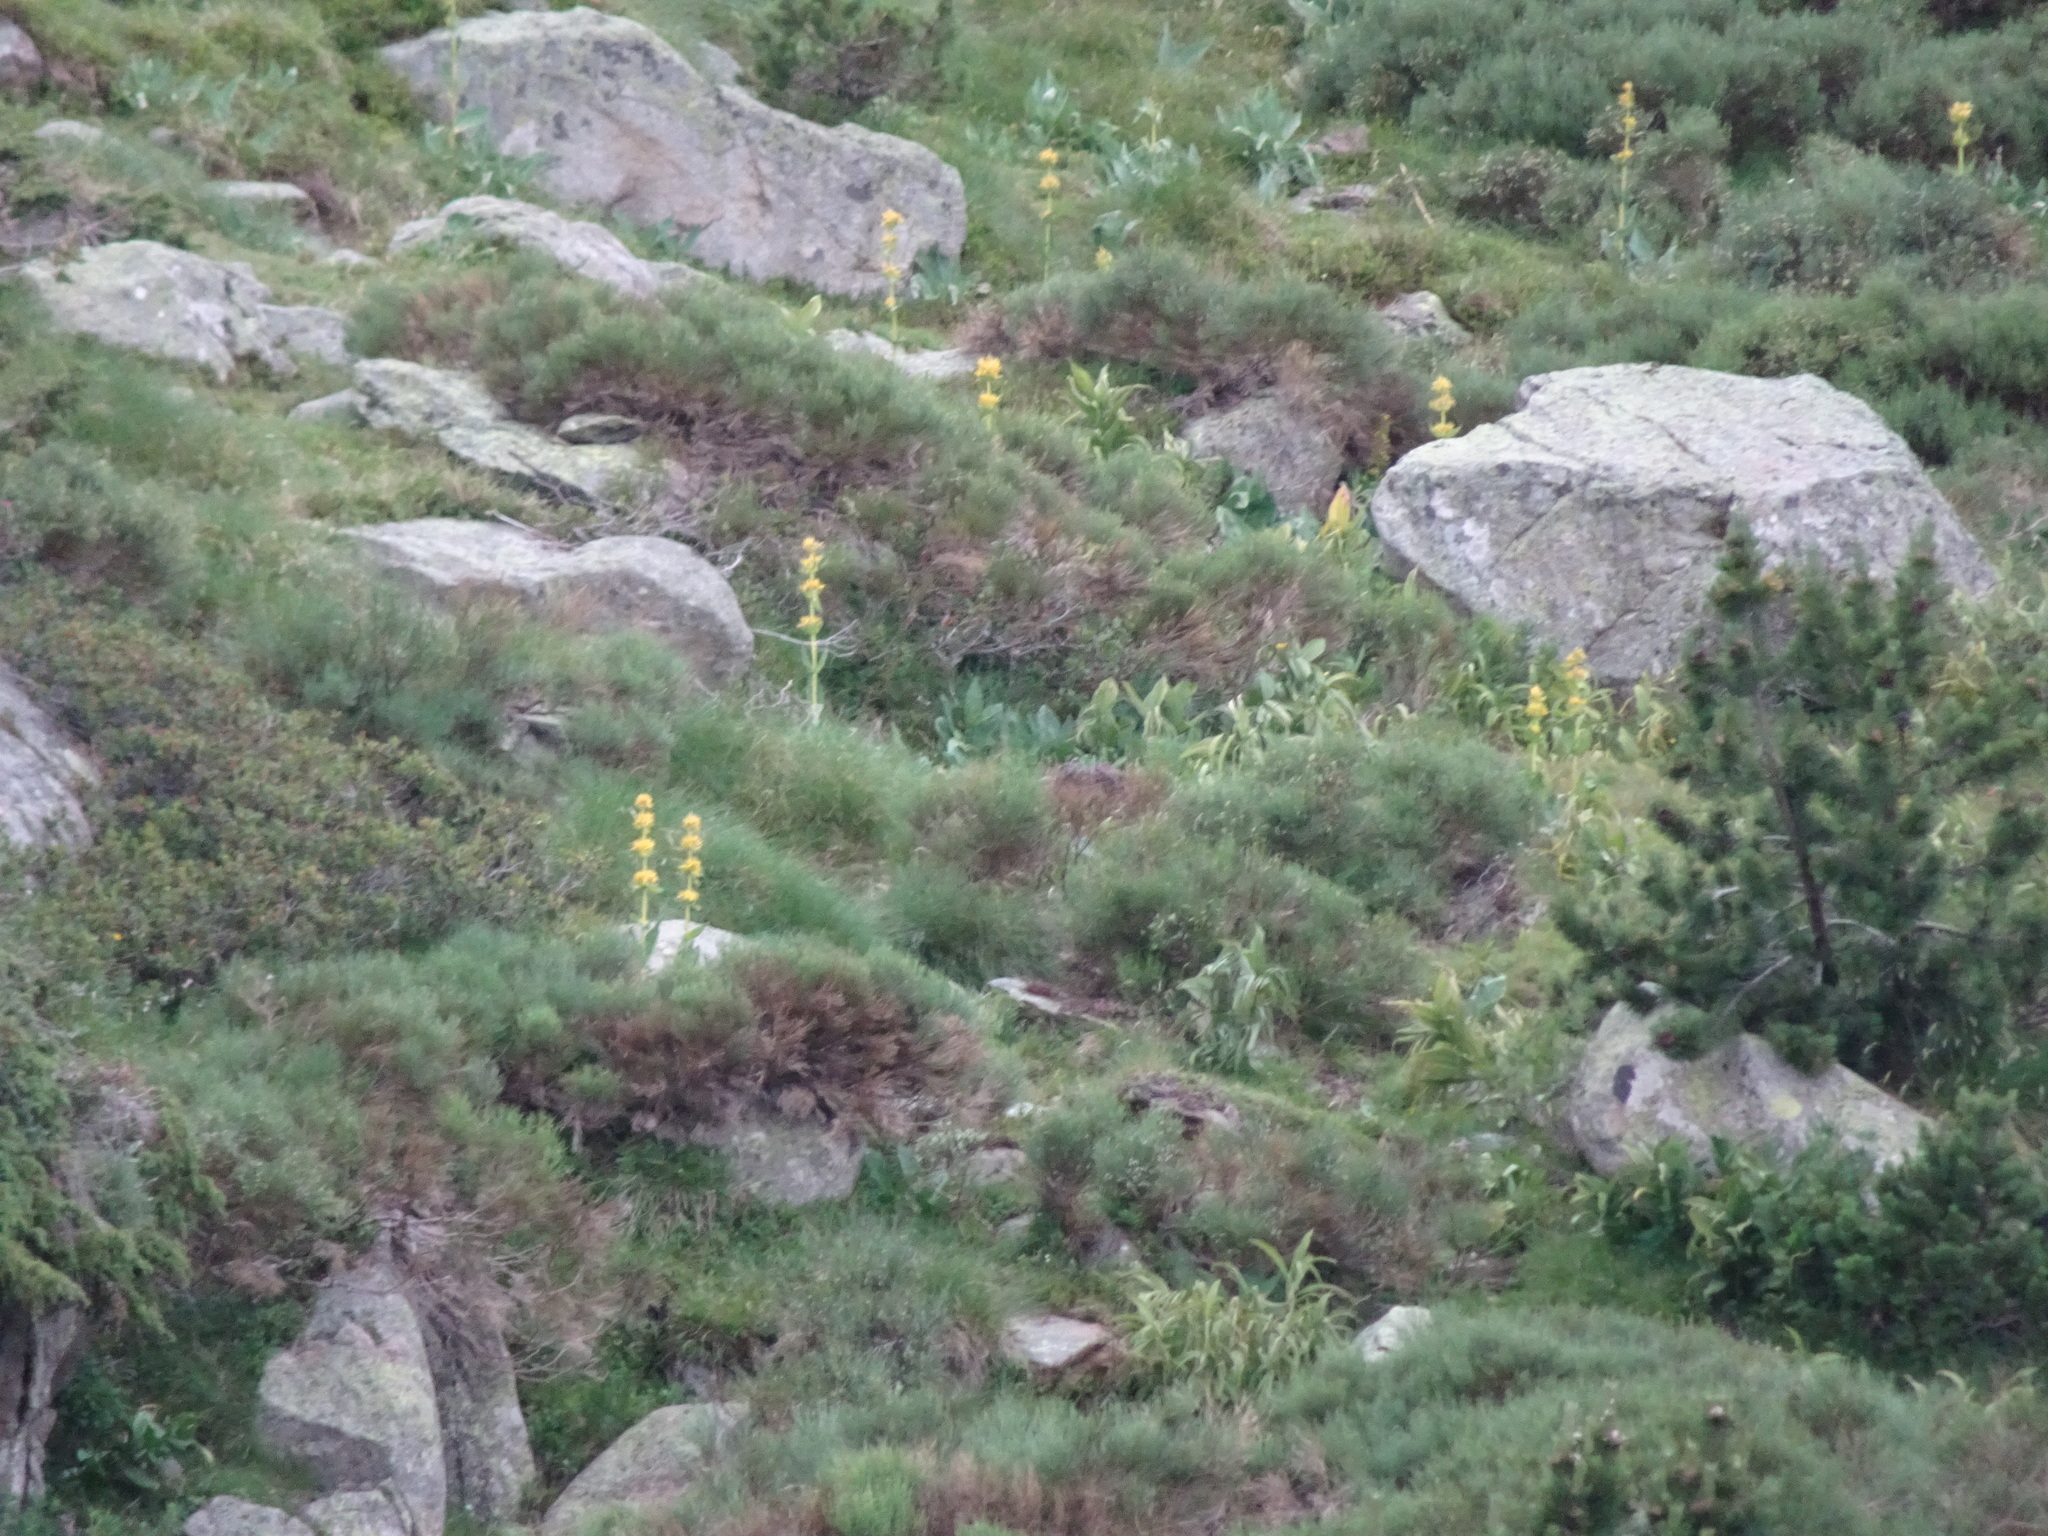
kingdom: Plantae
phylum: Tracheophyta
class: Magnoliopsida
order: Gentianales
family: Gentianaceae
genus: Gentiana
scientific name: Gentiana lutea
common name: Great yellow gentian
